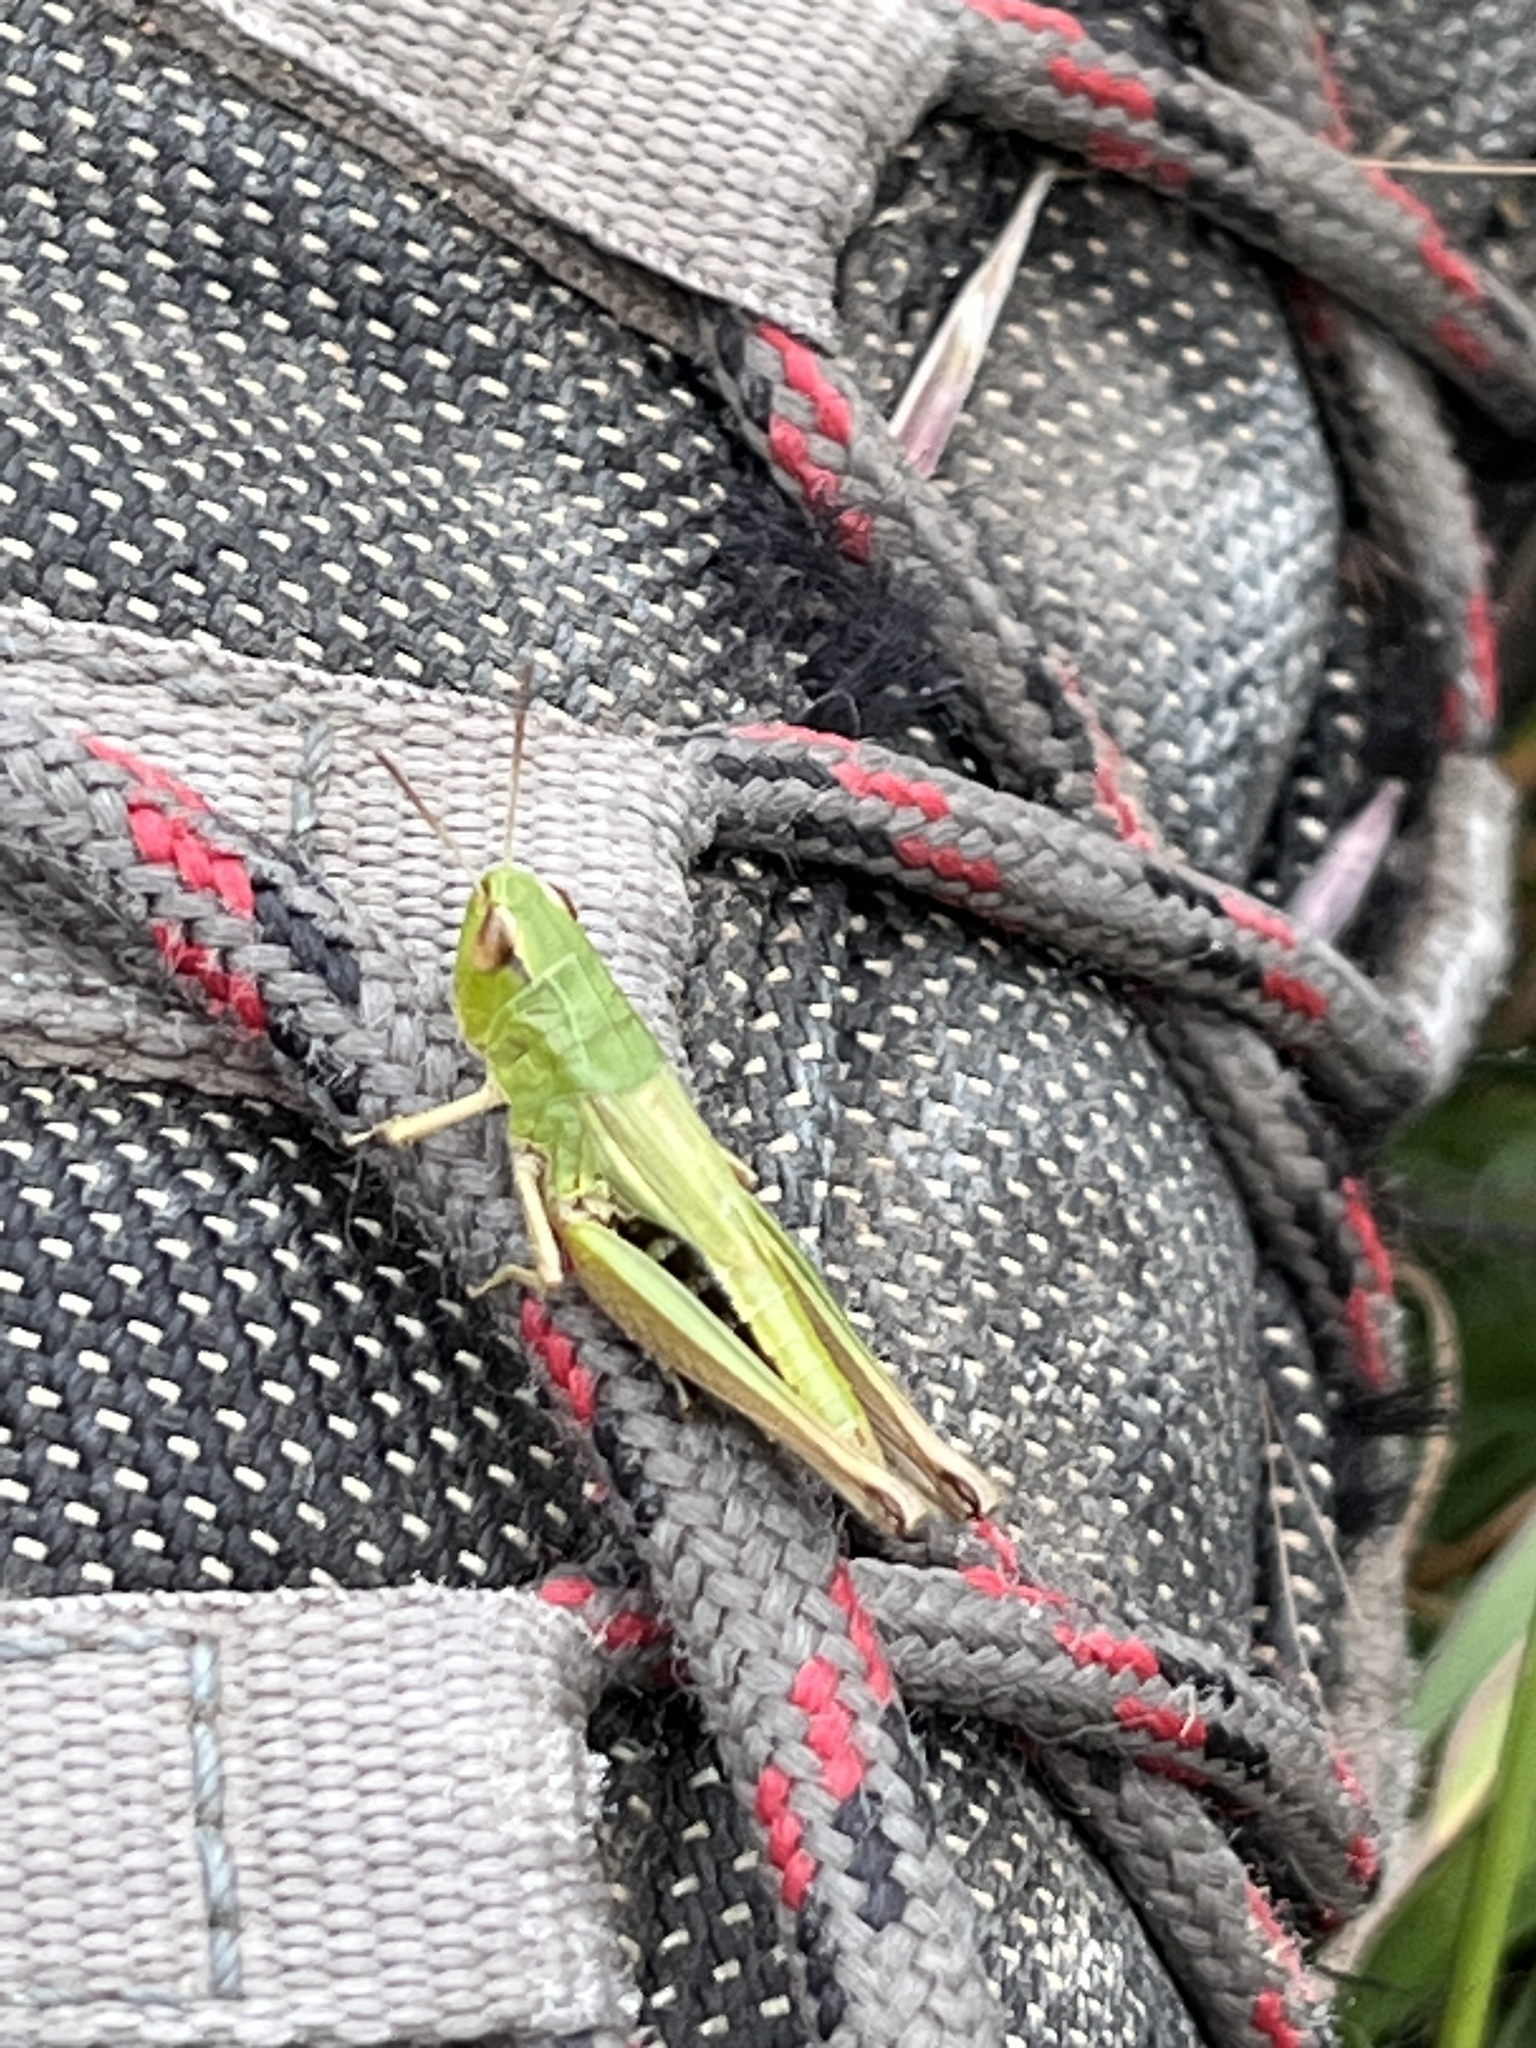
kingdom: Animalia
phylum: Arthropoda
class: Insecta
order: Orthoptera
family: Acrididae
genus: Pseudochorthippus
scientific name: Pseudochorthippus parallelus
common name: Meadow grasshopper
